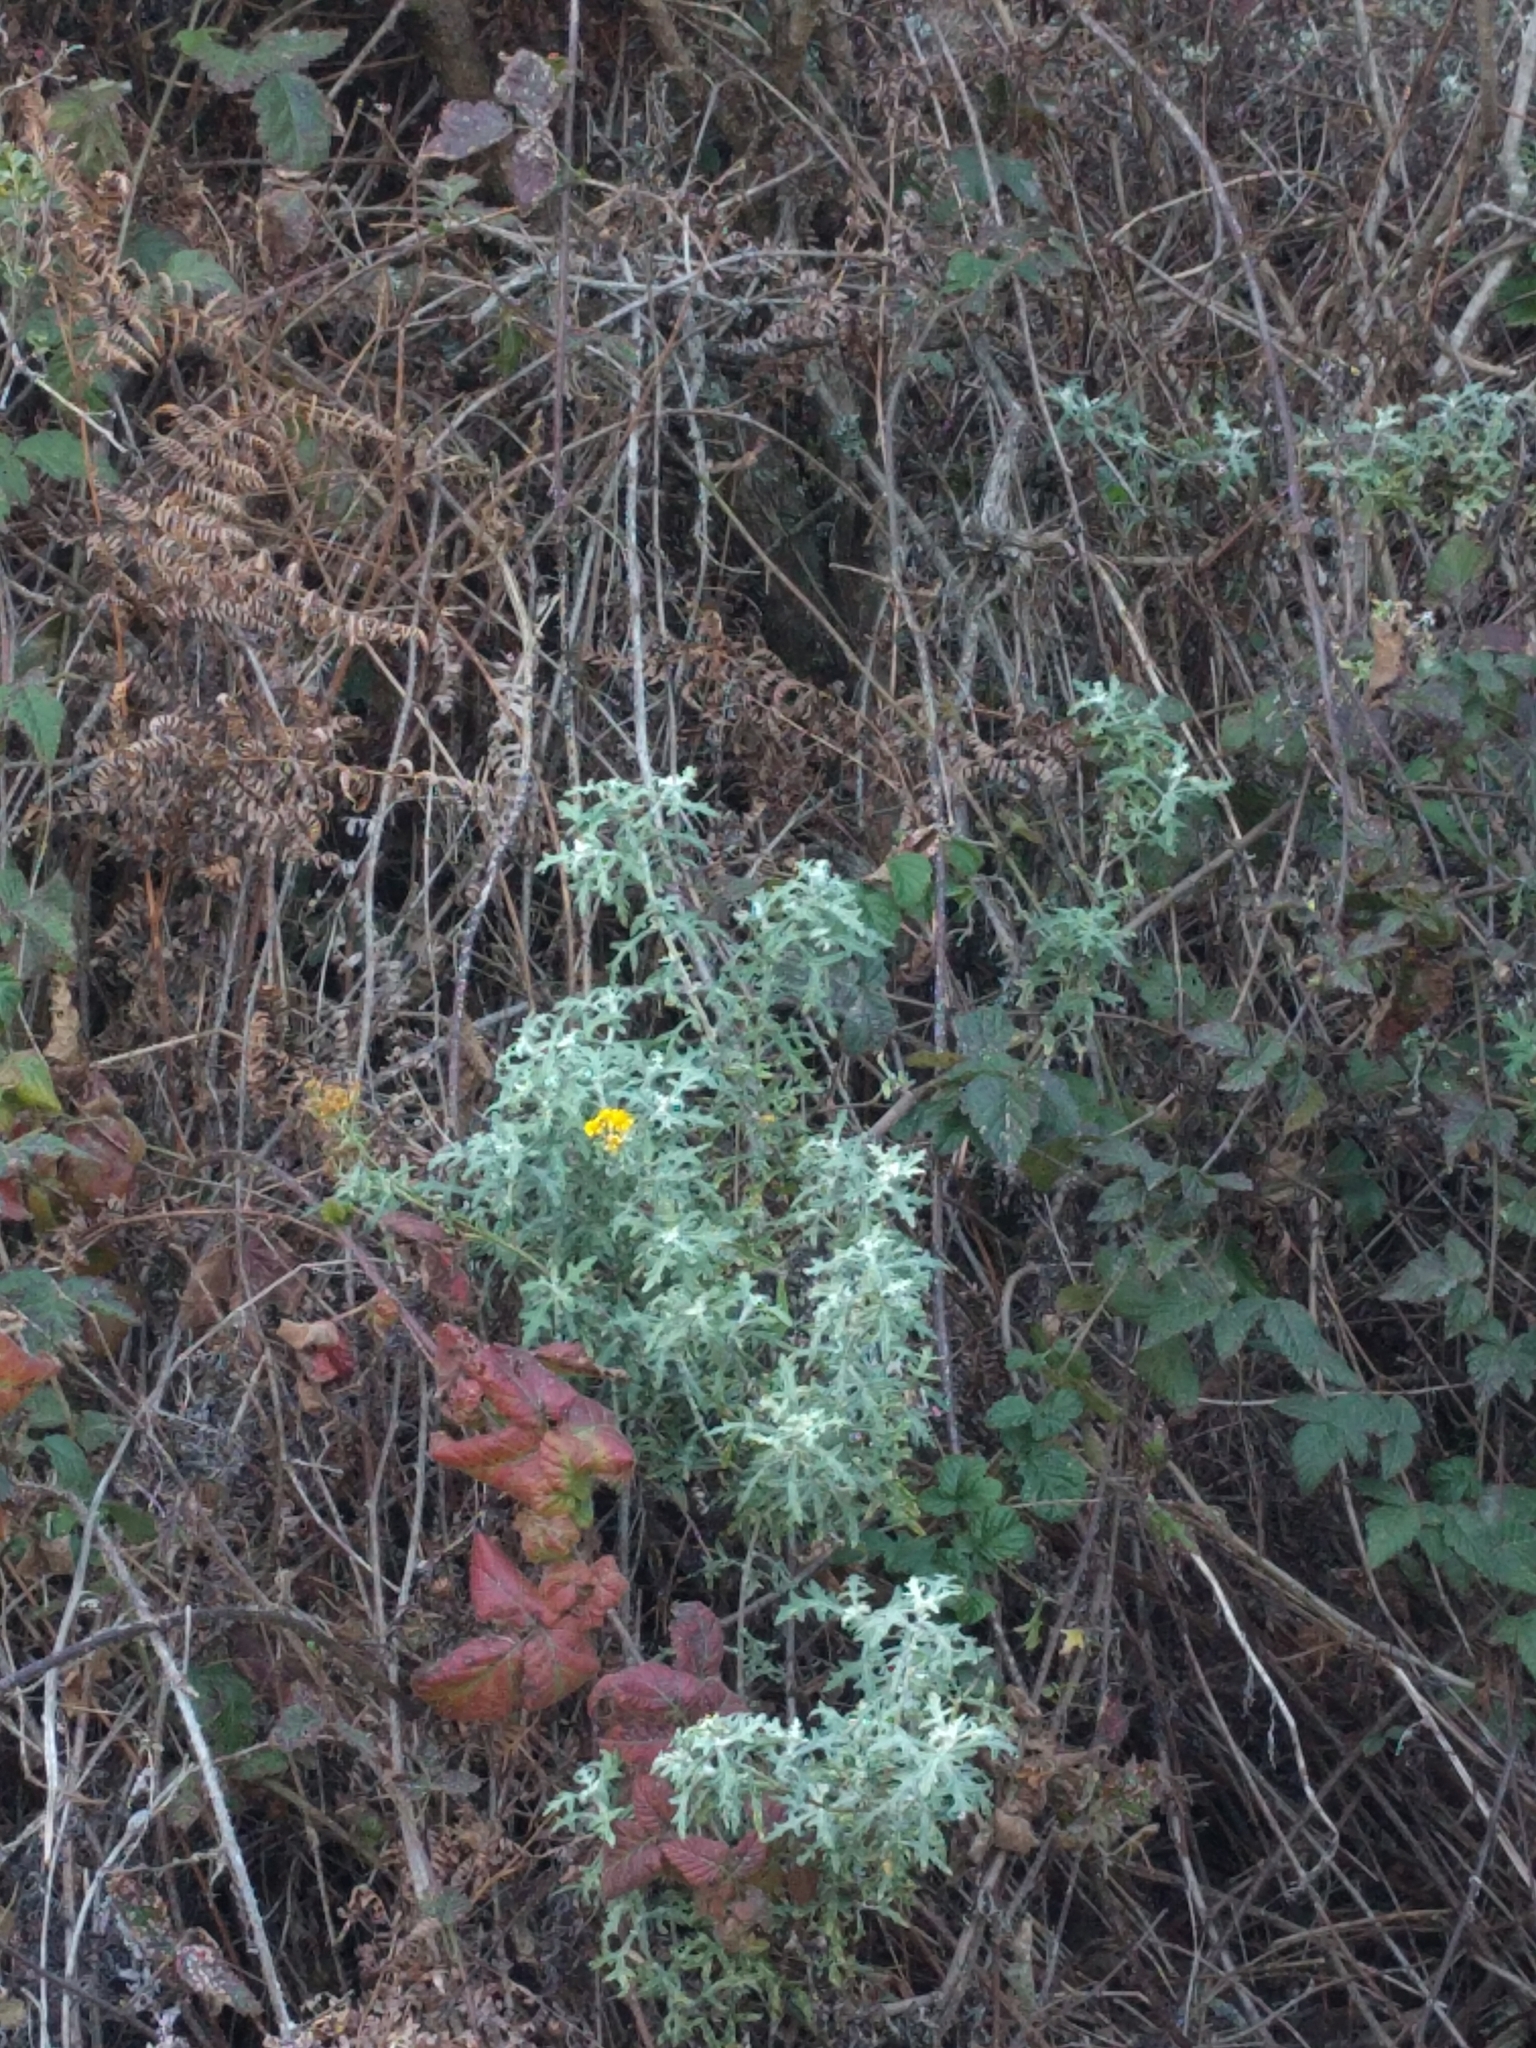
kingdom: Plantae
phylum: Tracheophyta
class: Magnoliopsida
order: Asterales
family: Asteraceae
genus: Eriophyllum
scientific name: Eriophyllum staechadifolium
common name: Lizardtail
